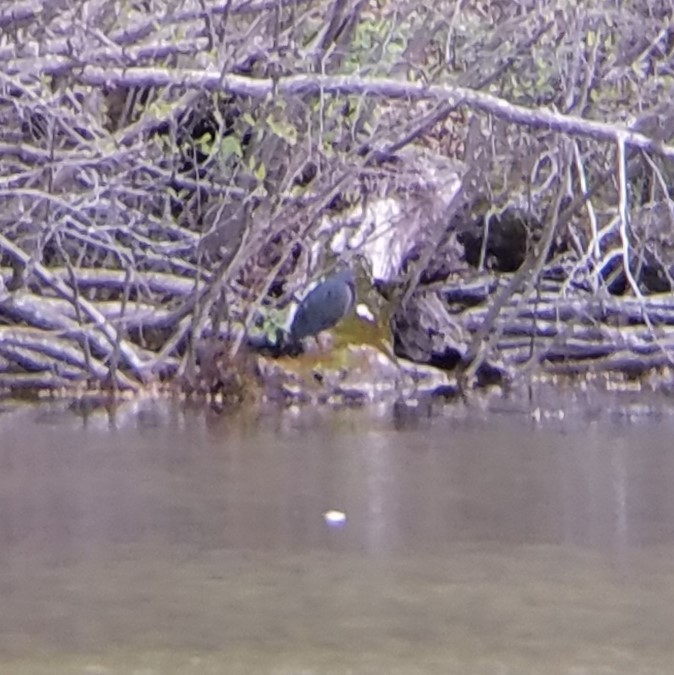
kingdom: Animalia
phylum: Chordata
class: Aves
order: Pelecaniformes
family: Ardeidae
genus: Butorides
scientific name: Butorides virescens
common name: Green heron
